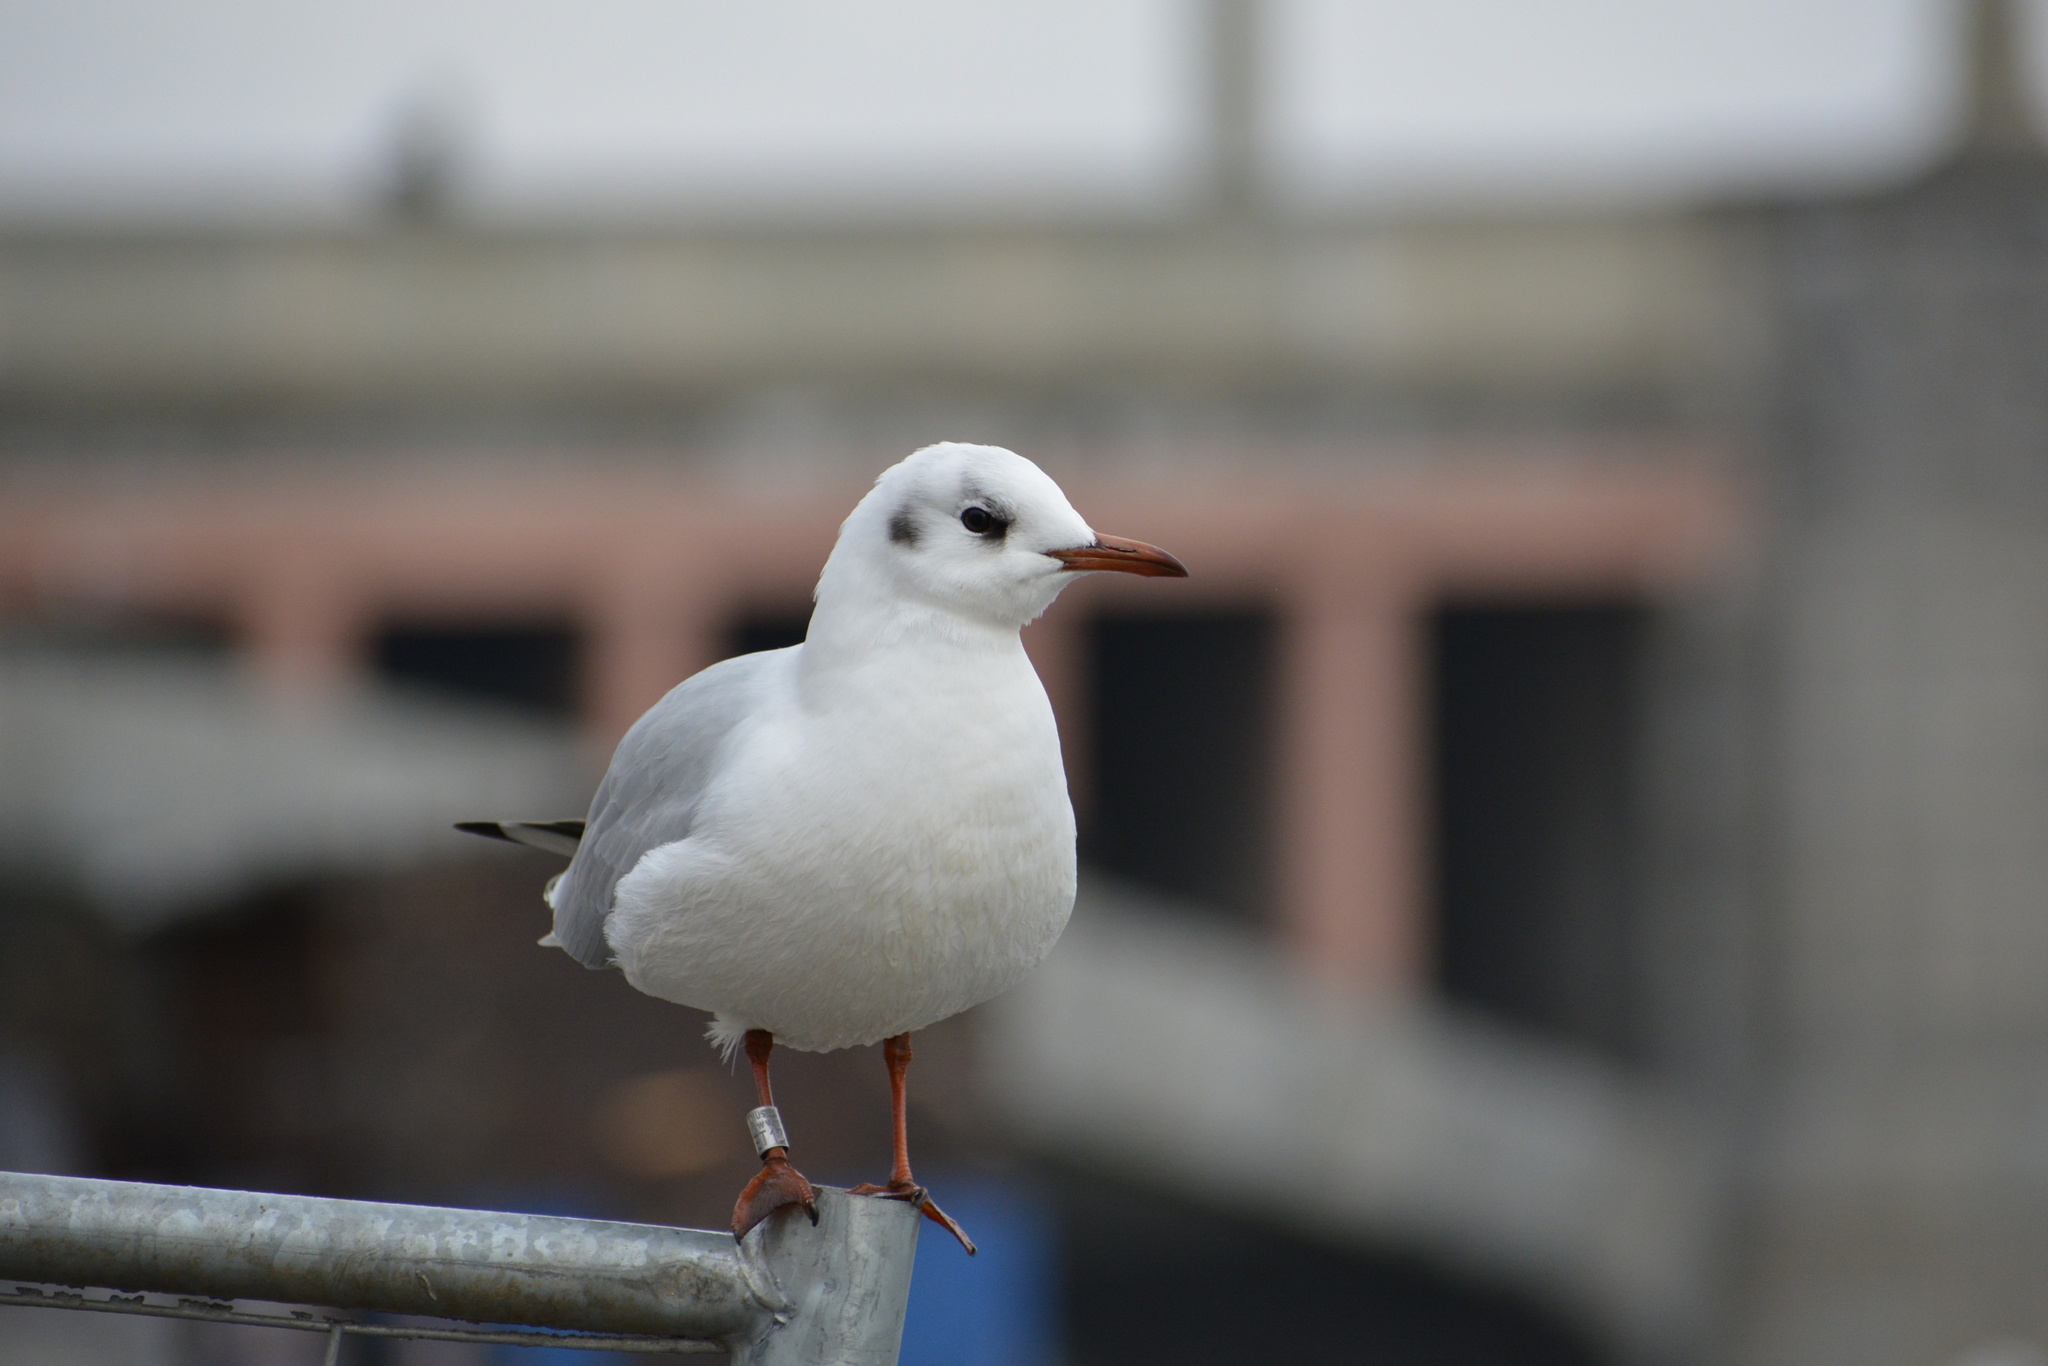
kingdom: Animalia
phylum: Chordata
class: Aves
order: Charadriiformes
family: Laridae
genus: Chroicocephalus
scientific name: Chroicocephalus ridibundus
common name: Black-headed gull
